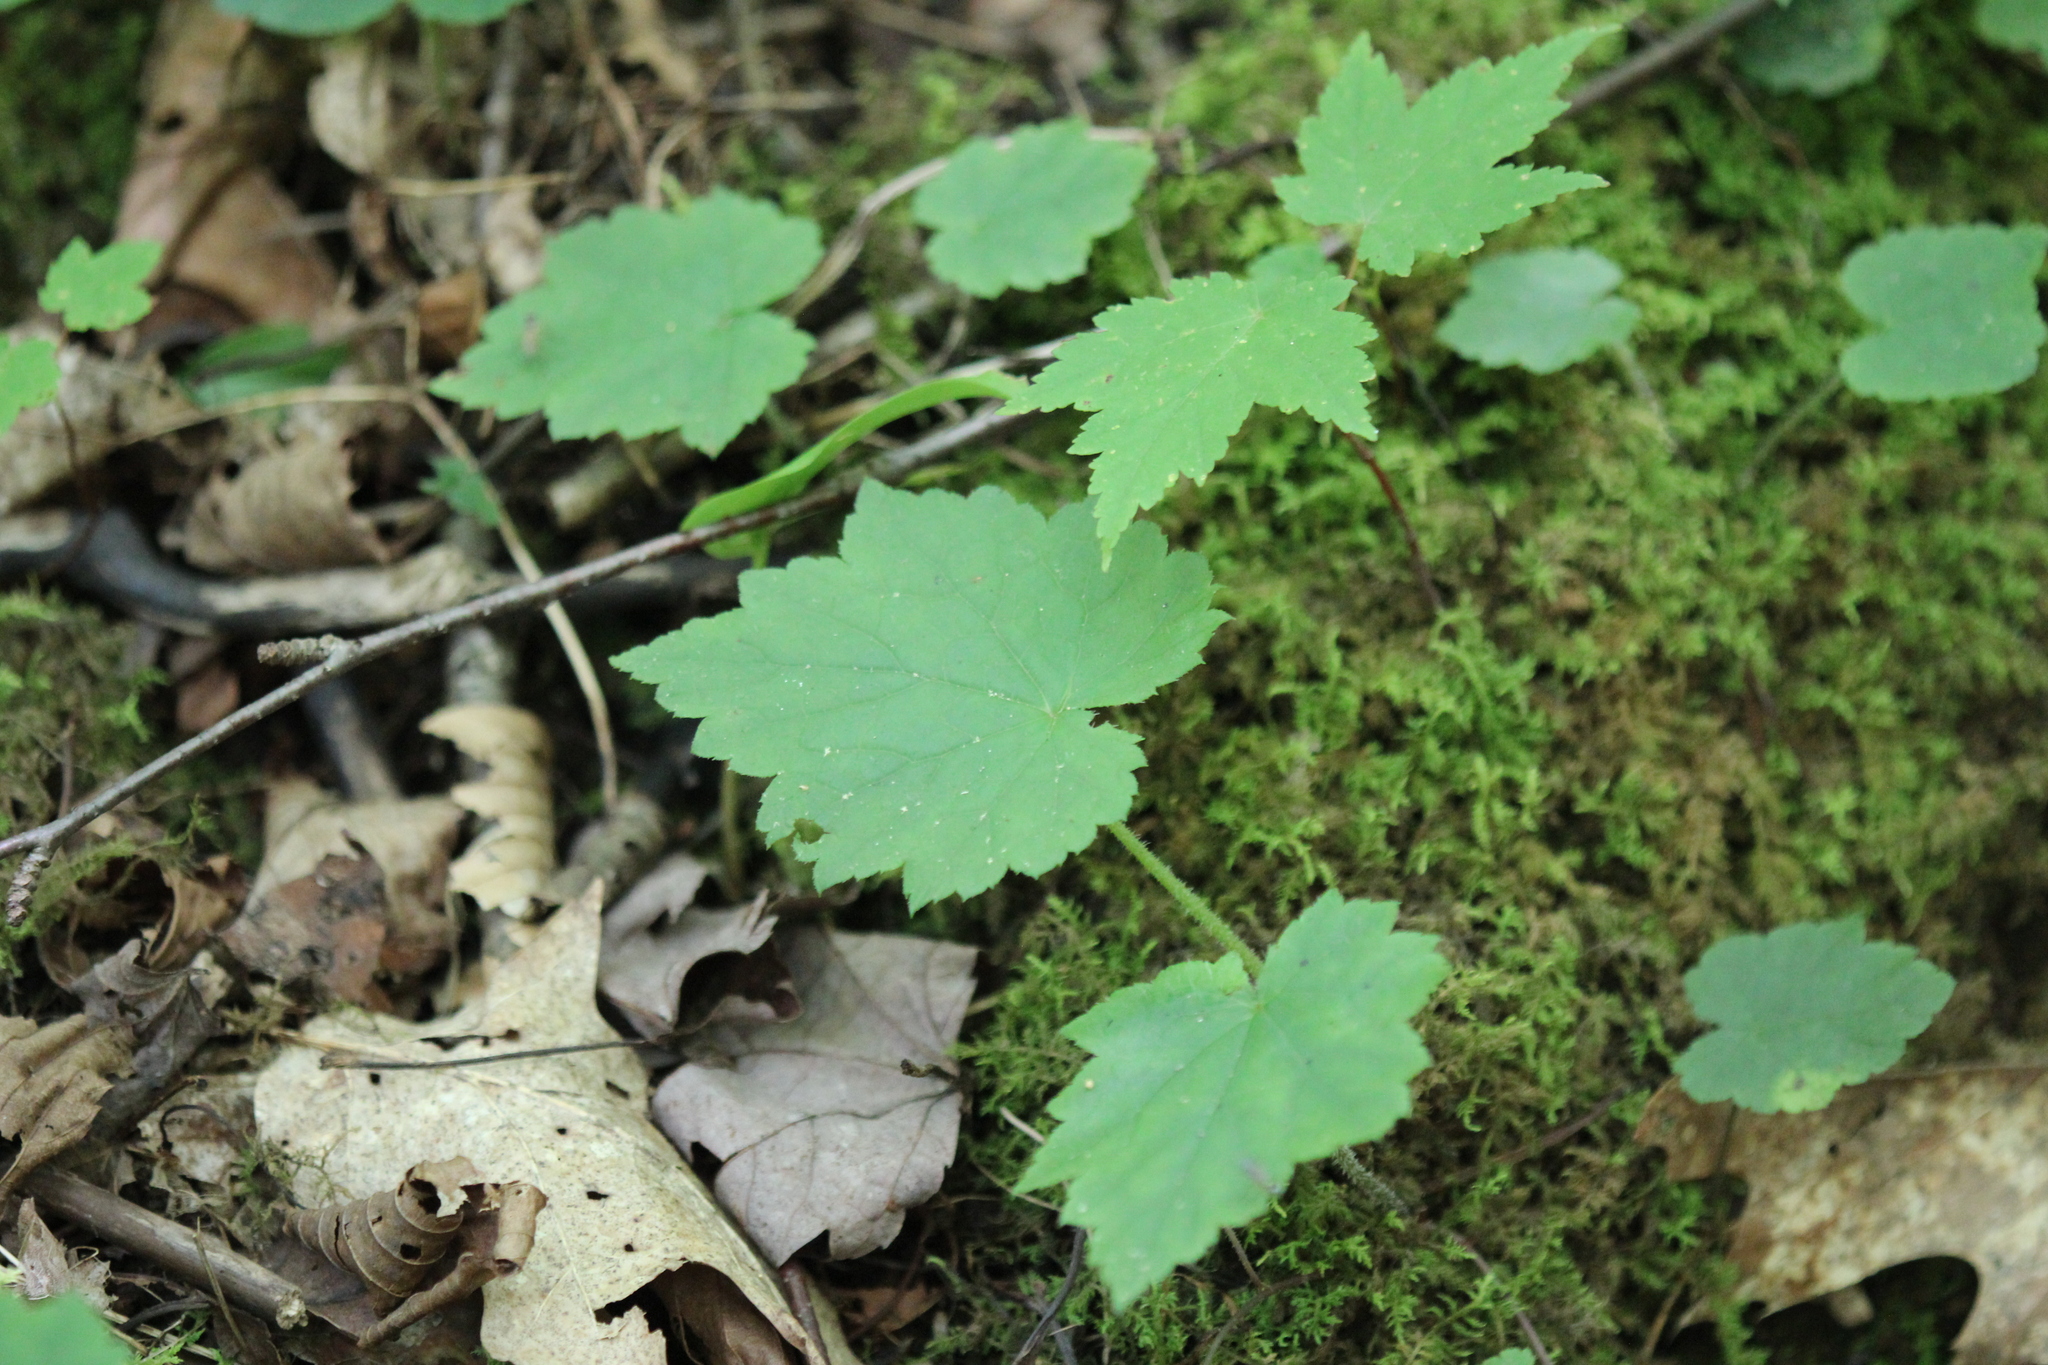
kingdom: Plantae
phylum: Tracheophyta
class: Magnoliopsida
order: Saxifragales
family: Saxifragaceae
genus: Tiarella
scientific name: Tiarella stolonifera
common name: Stoloniferous foamflower
